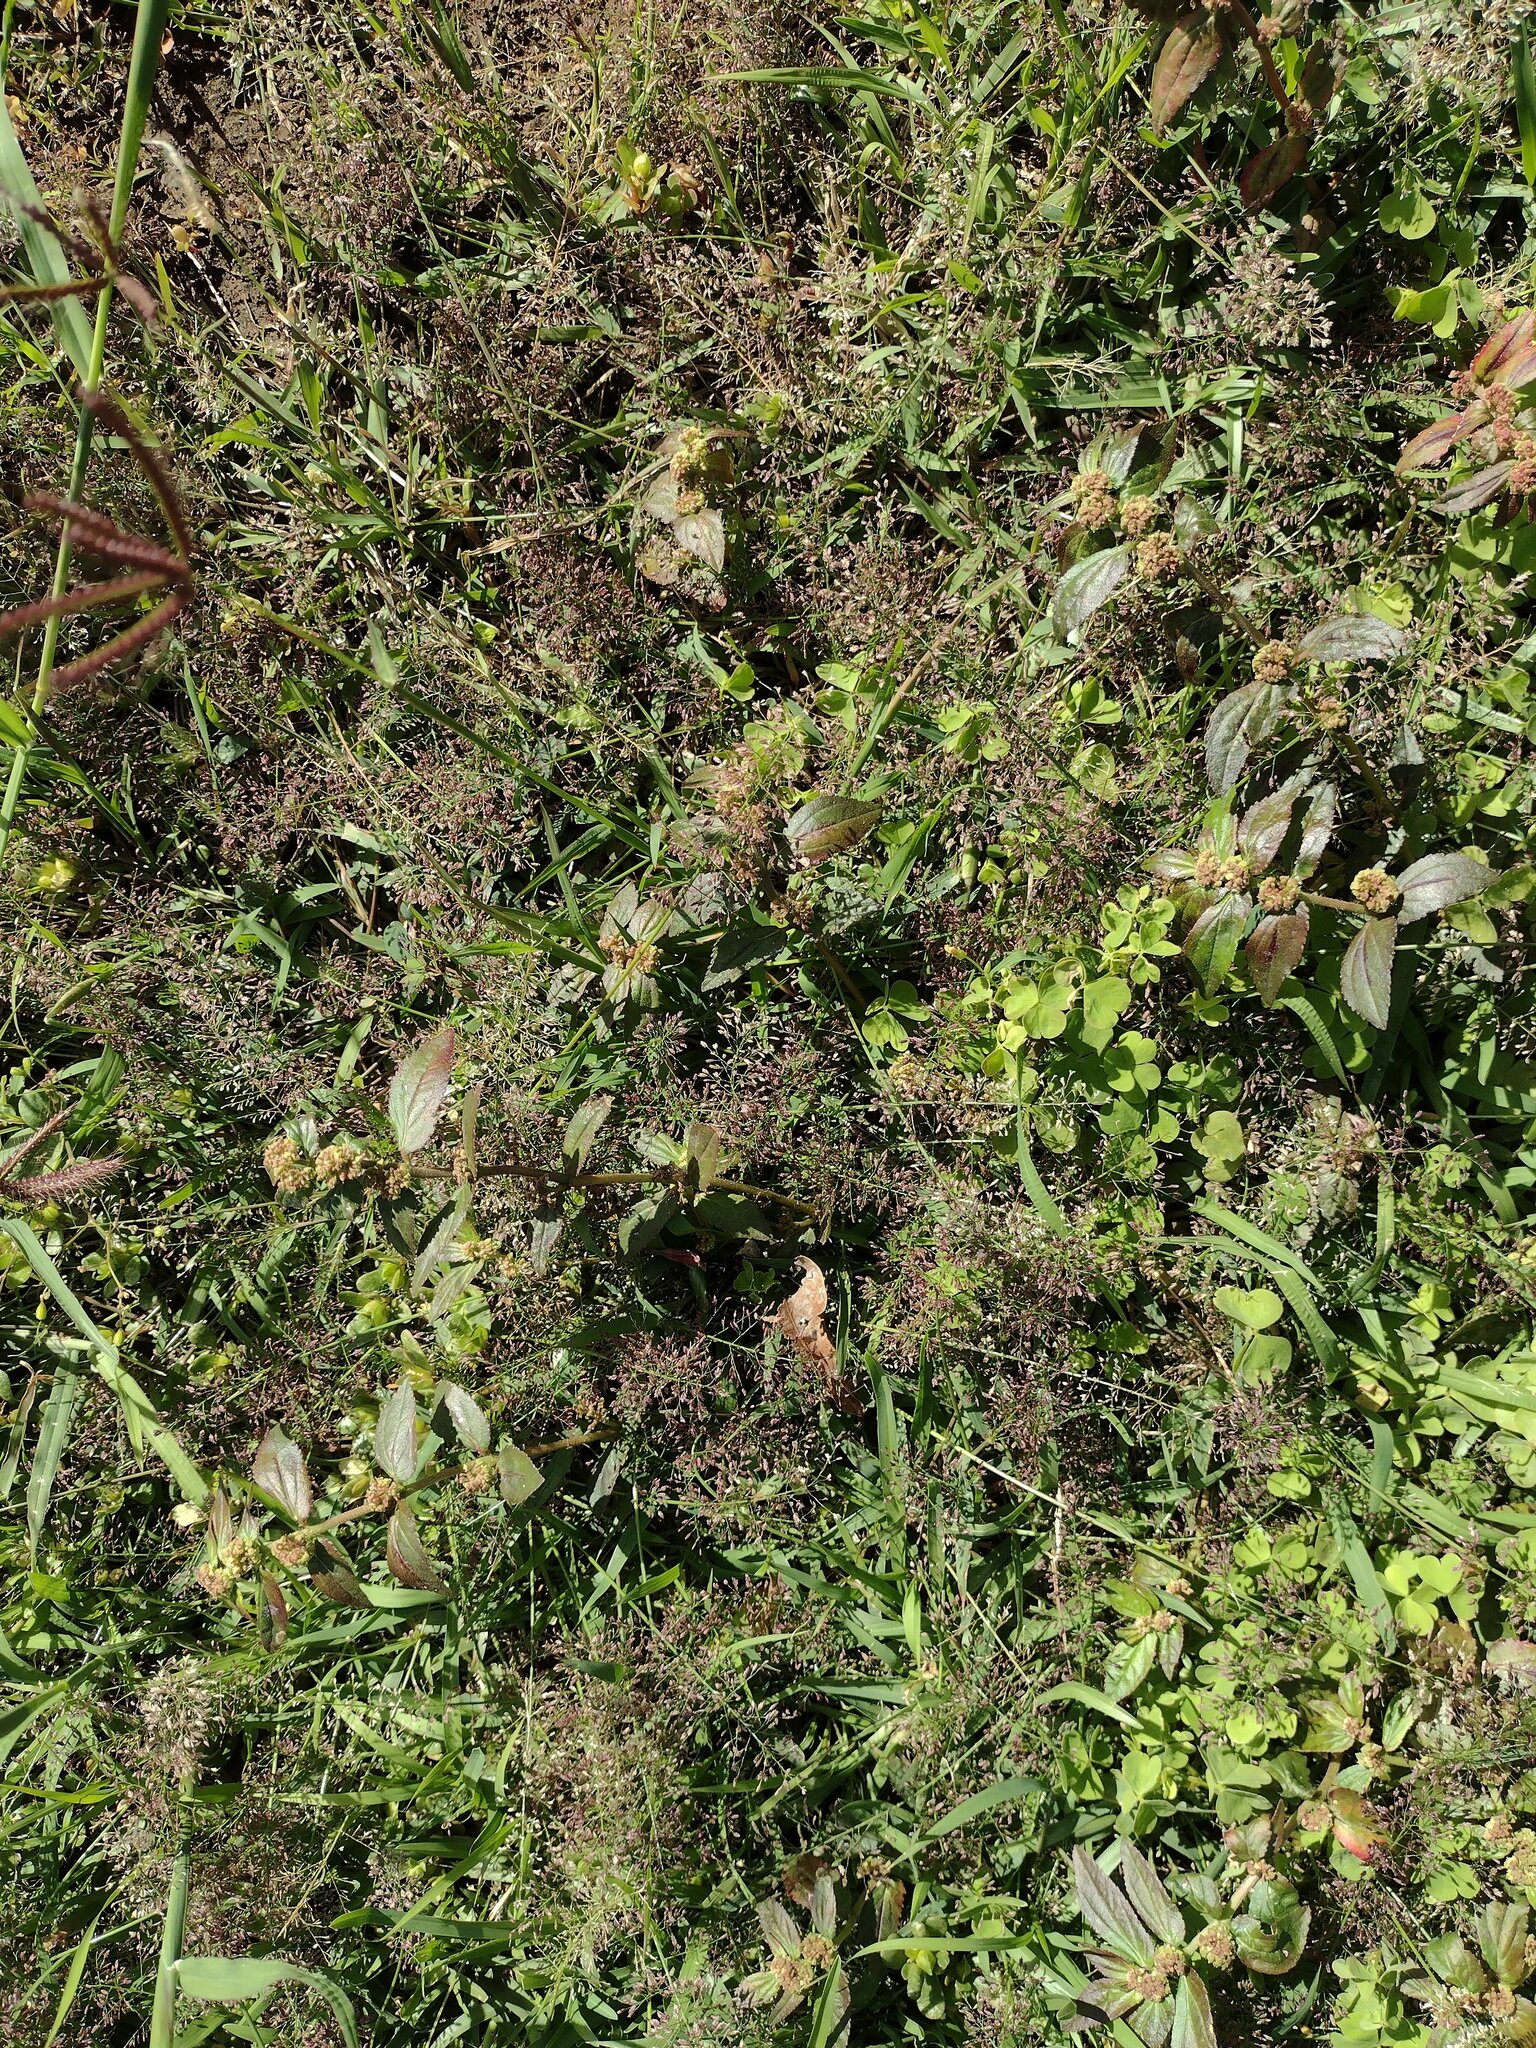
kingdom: Plantae
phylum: Tracheophyta
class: Liliopsida
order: Poales
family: Poaceae
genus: Eragrostis
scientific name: Eragrostis tenella
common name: Japanese lovegrass
